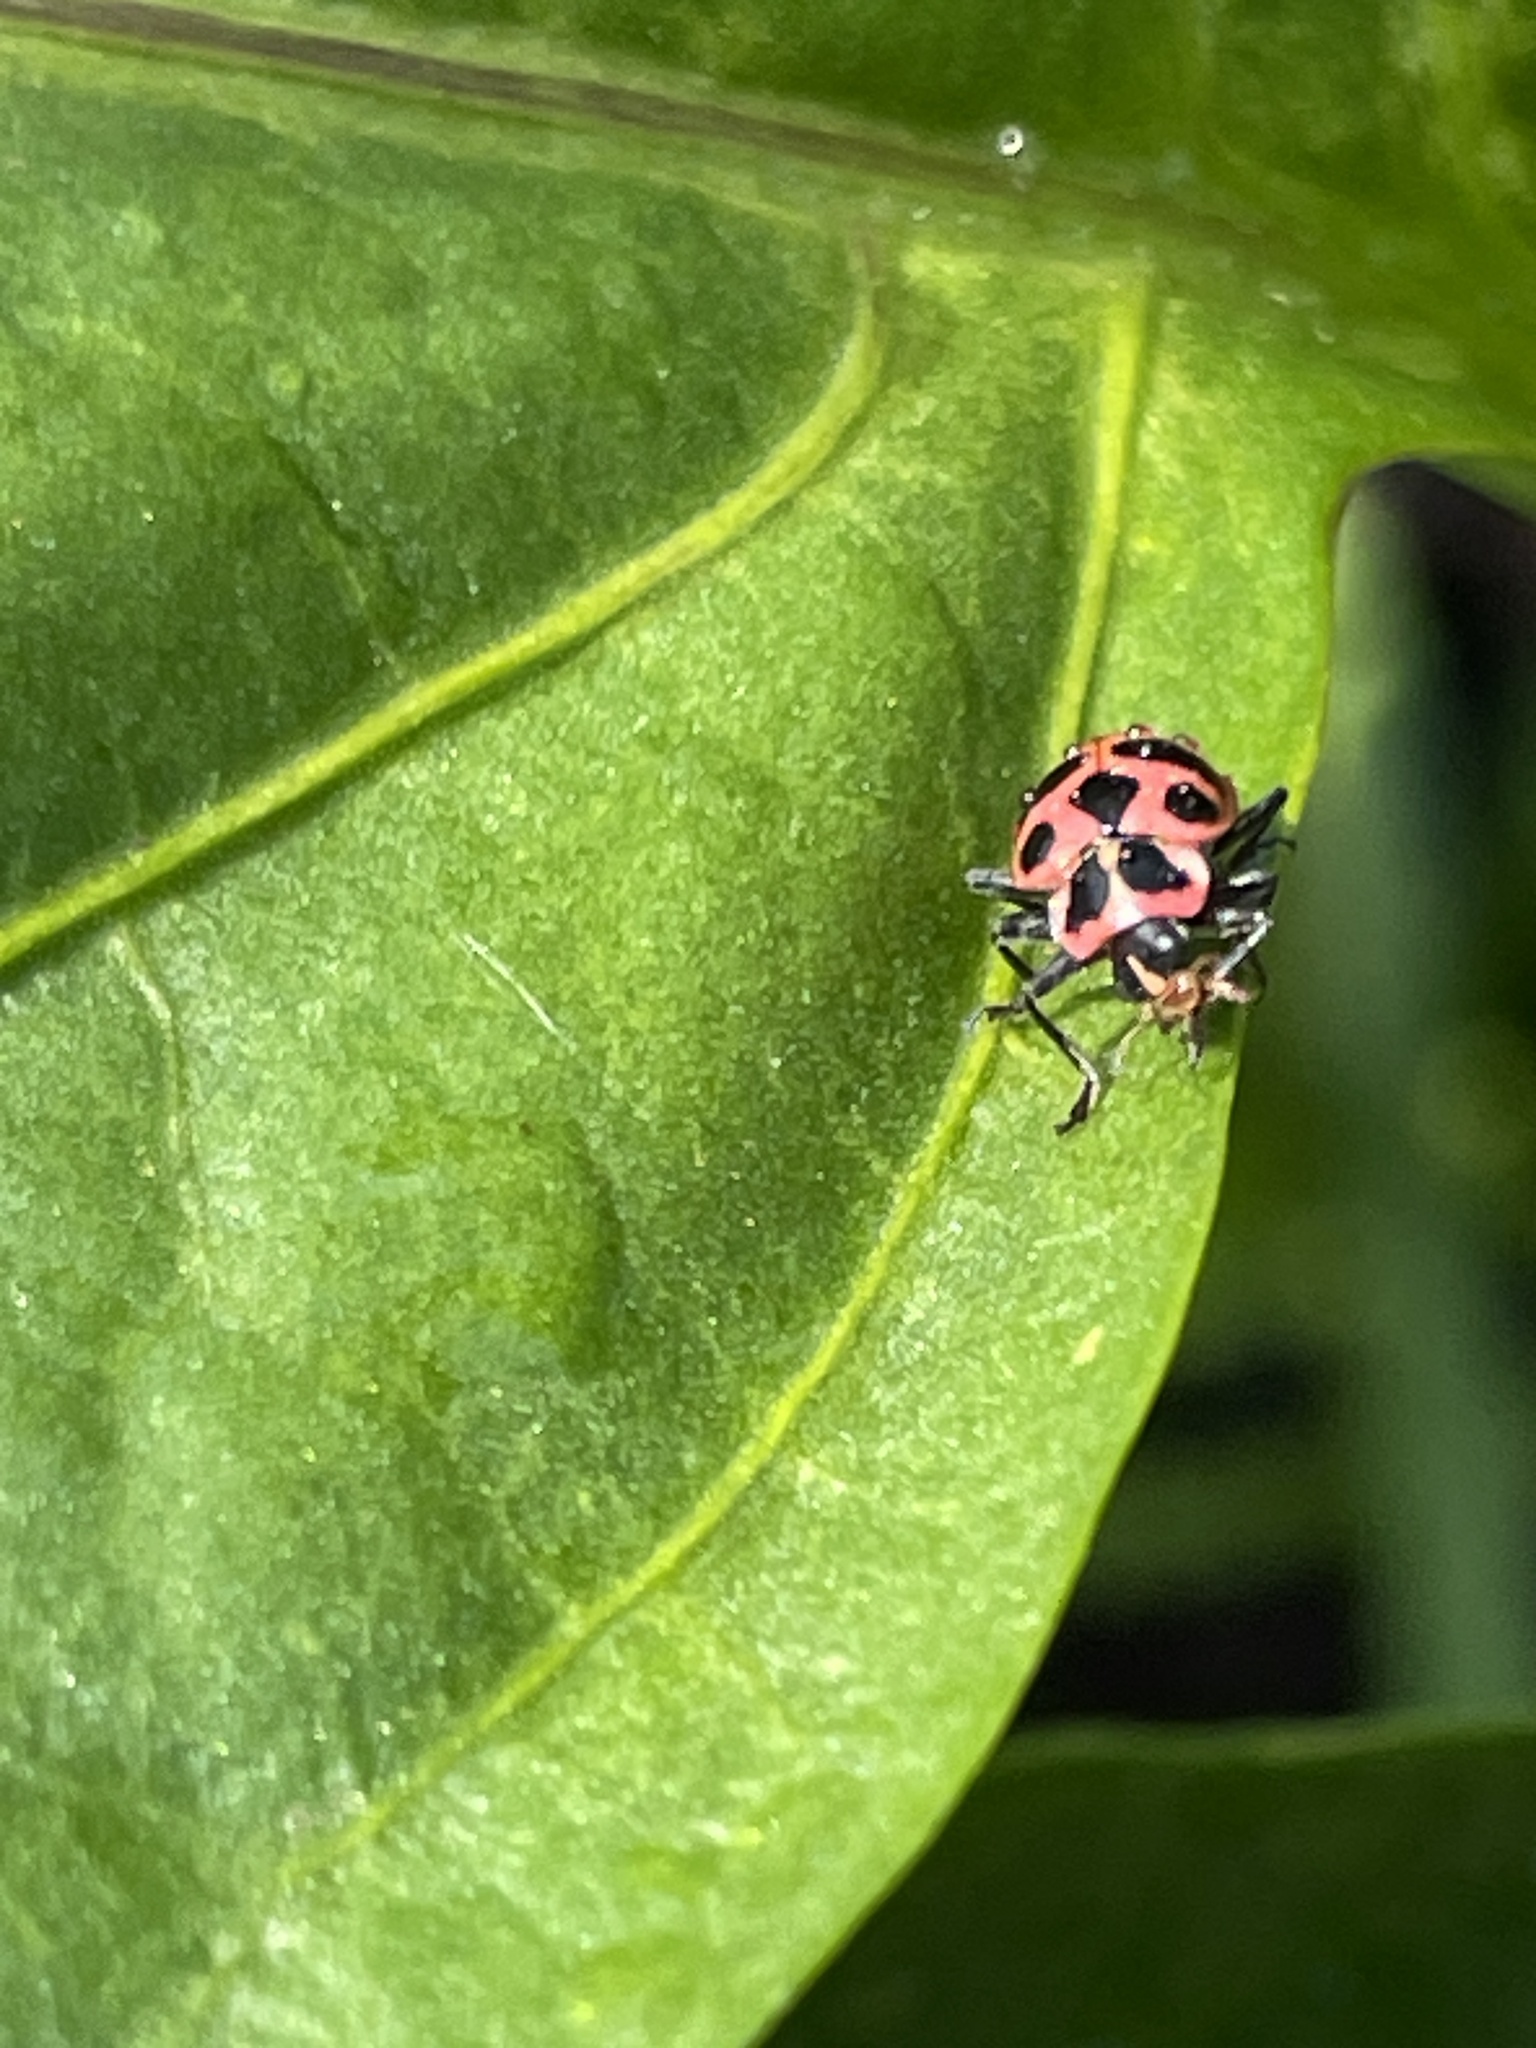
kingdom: Animalia
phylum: Arthropoda
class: Insecta
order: Coleoptera
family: Coccinellidae
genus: Coleomegilla
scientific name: Coleomegilla maculata
